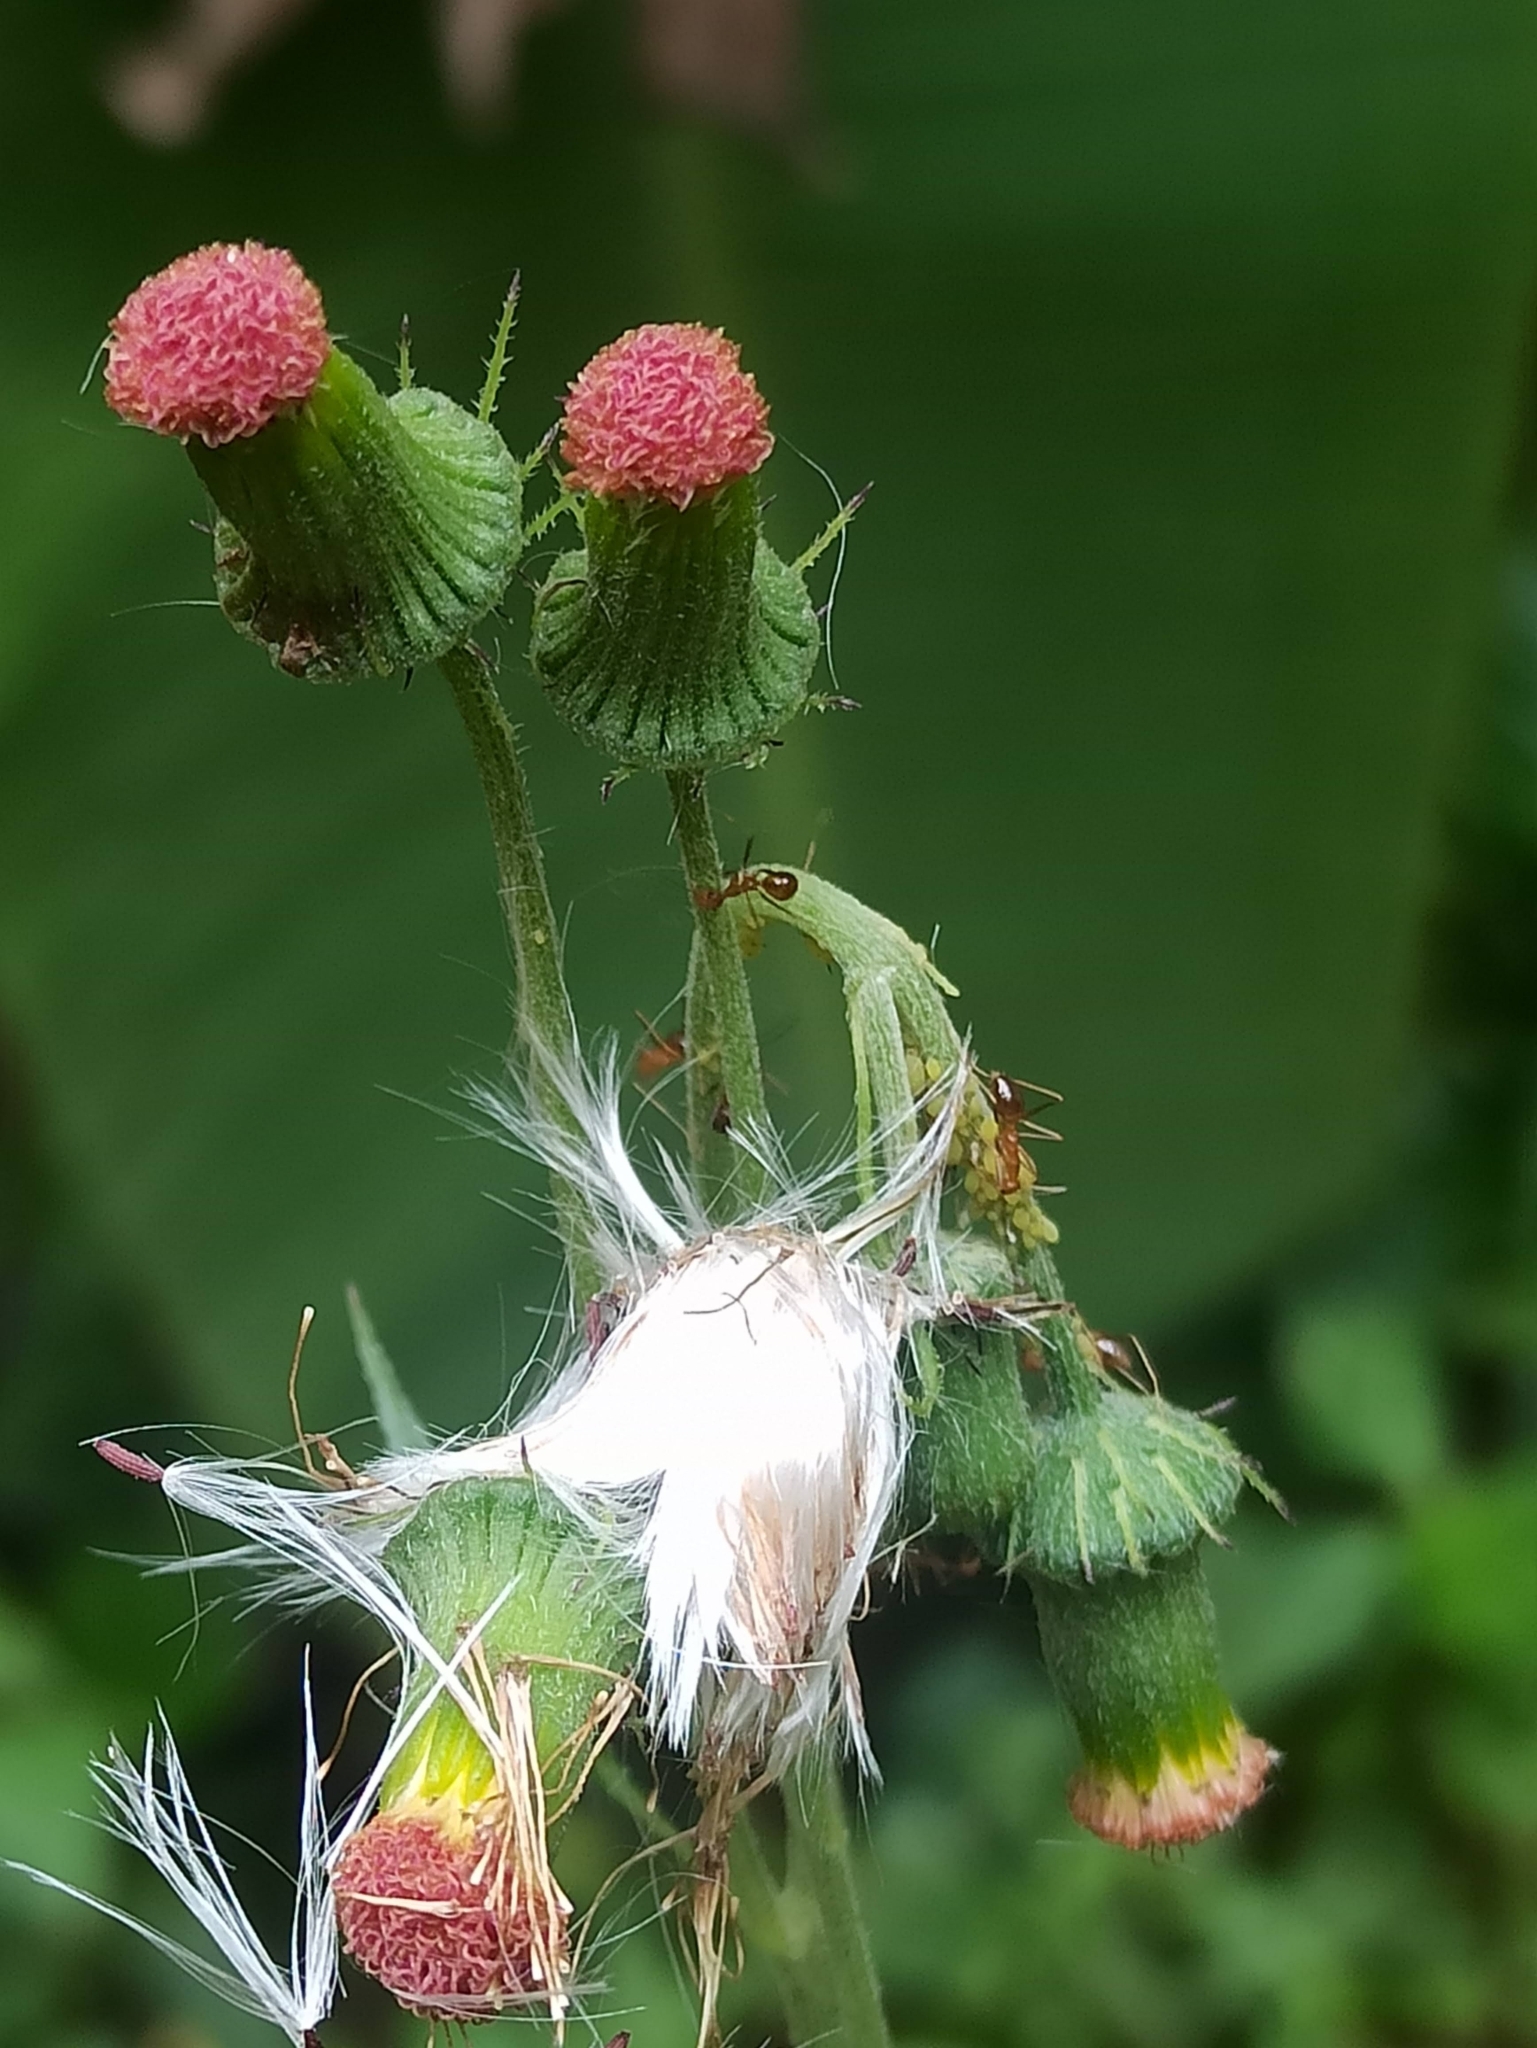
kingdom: Plantae
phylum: Tracheophyta
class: Magnoliopsida
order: Asterales
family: Asteraceae
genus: Crassocephalum
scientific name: Crassocephalum crepidioides
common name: Redflower ragleaf
